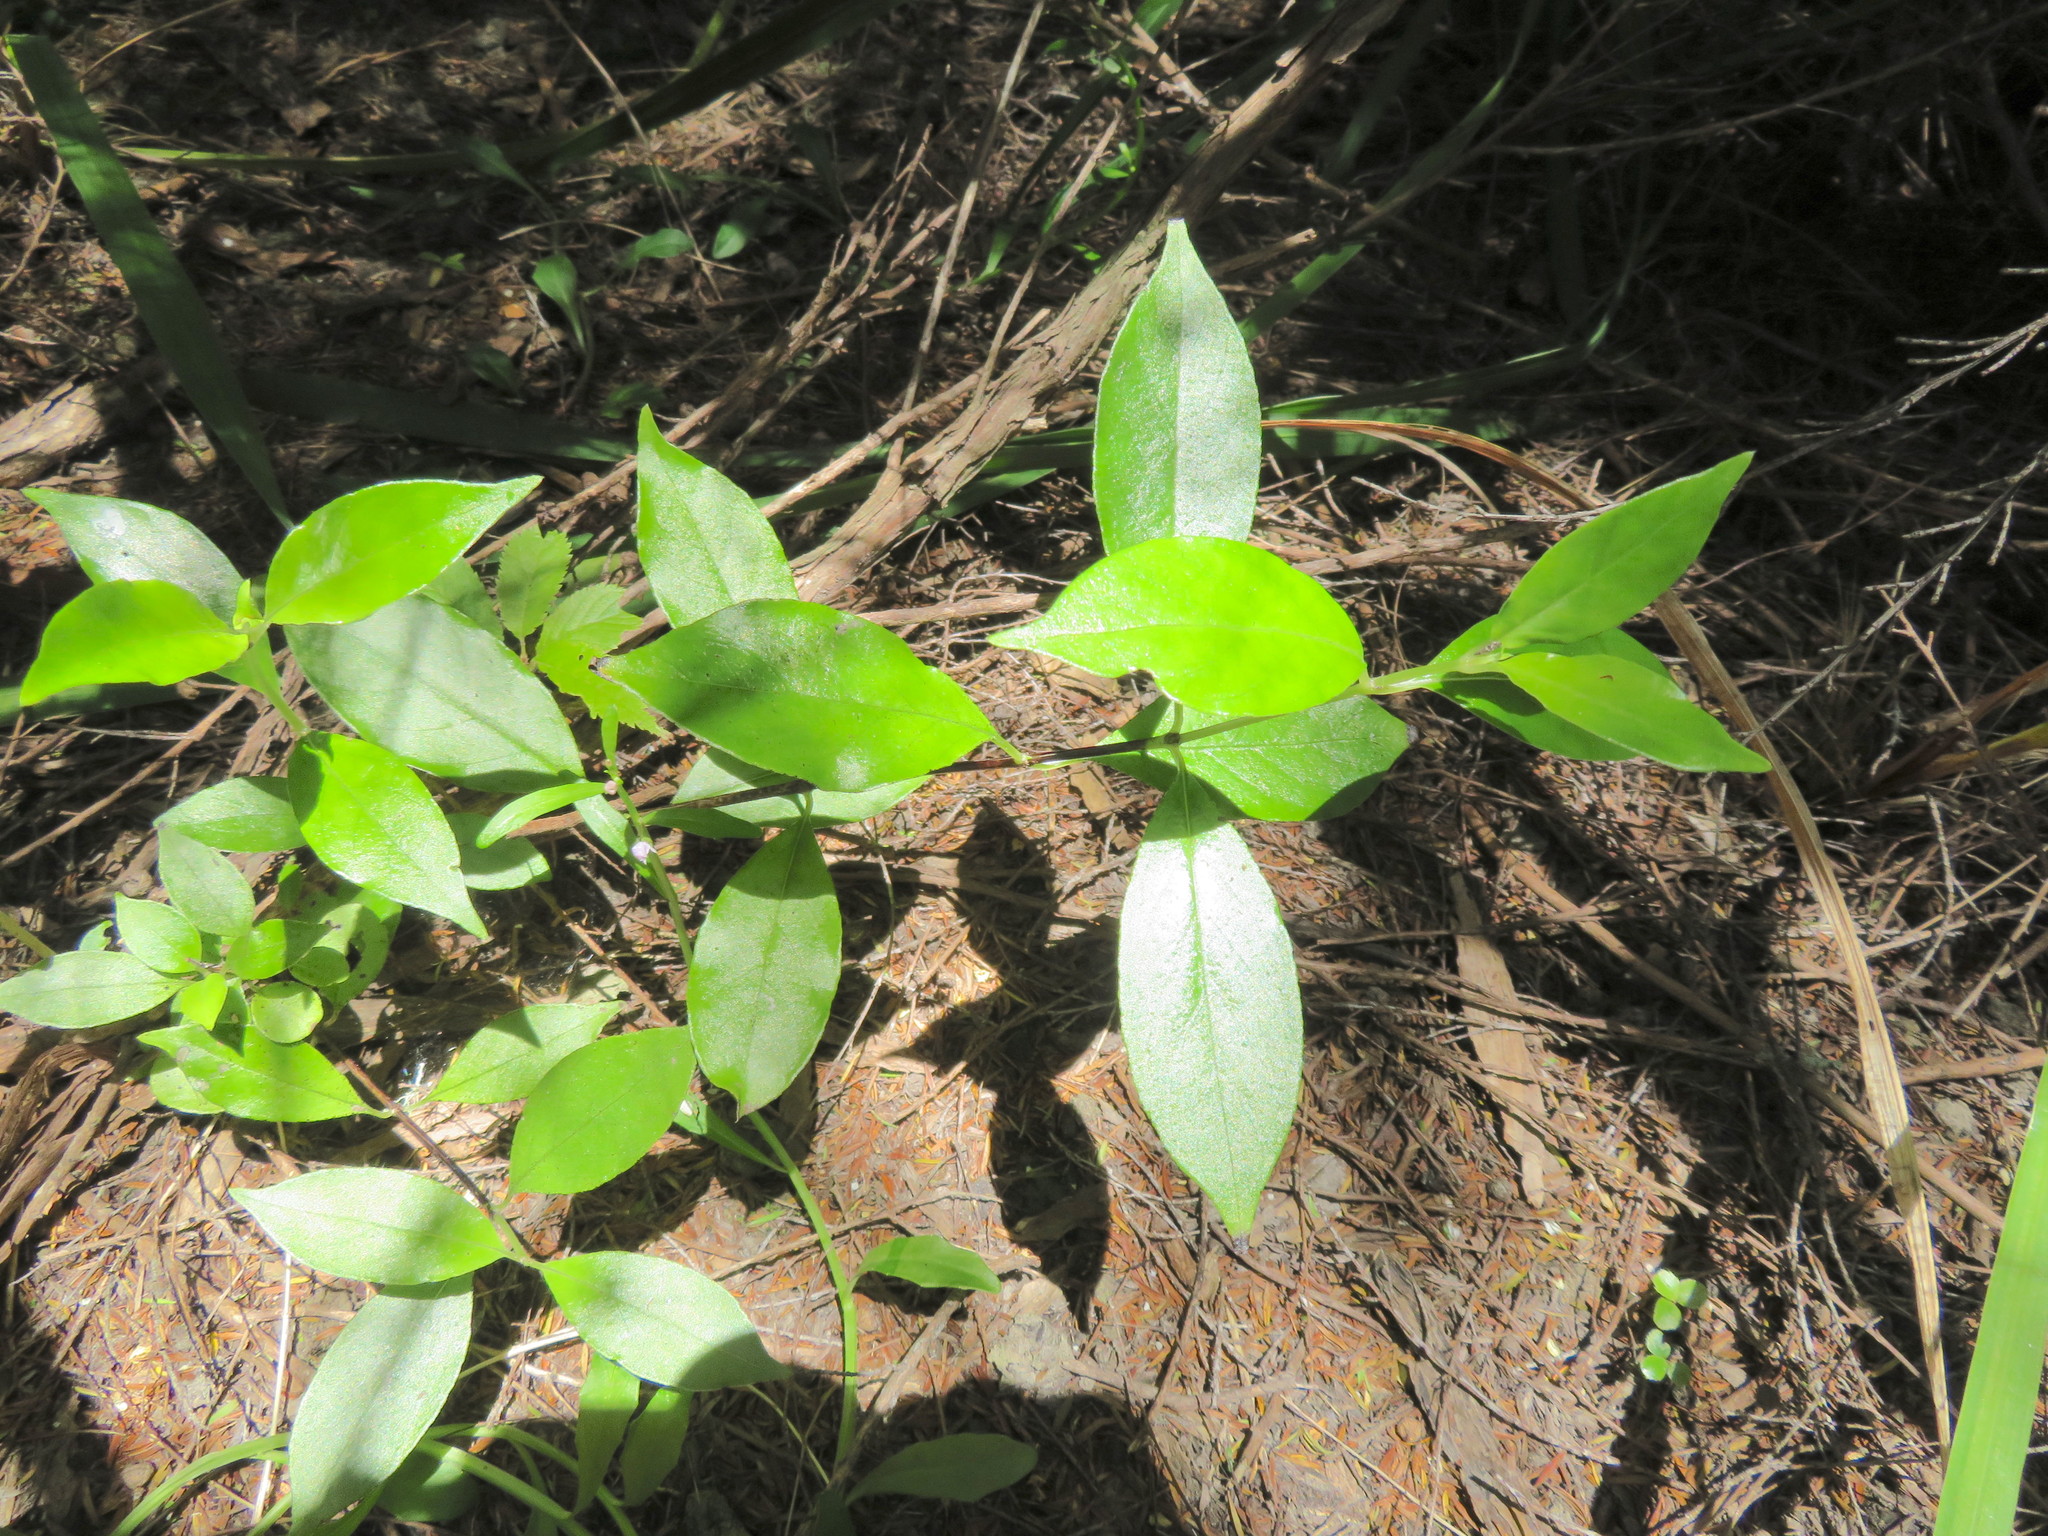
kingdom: Plantae
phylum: Tracheophyta
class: Magnoliopsida
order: Gentianales
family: Loganiaceae
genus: Geniostoma
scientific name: Geniostoma ligustrifolium
